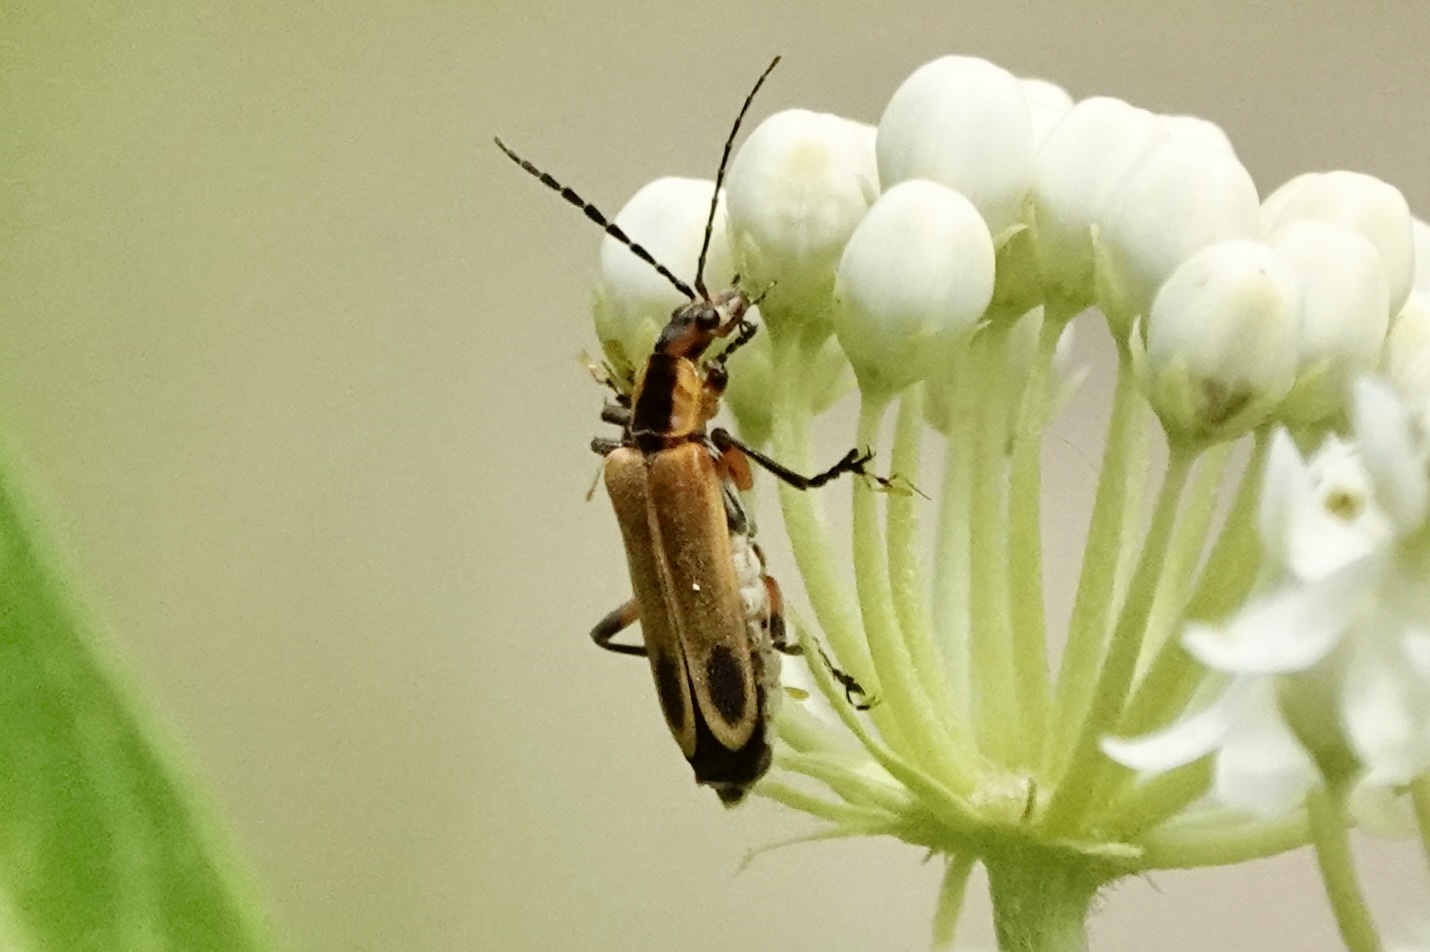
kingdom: Animalia
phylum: Arthropoda
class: Insecta
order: Coleoptera
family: Cantharidae
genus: Chauliognathus
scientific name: Chauliognathus marginatus
